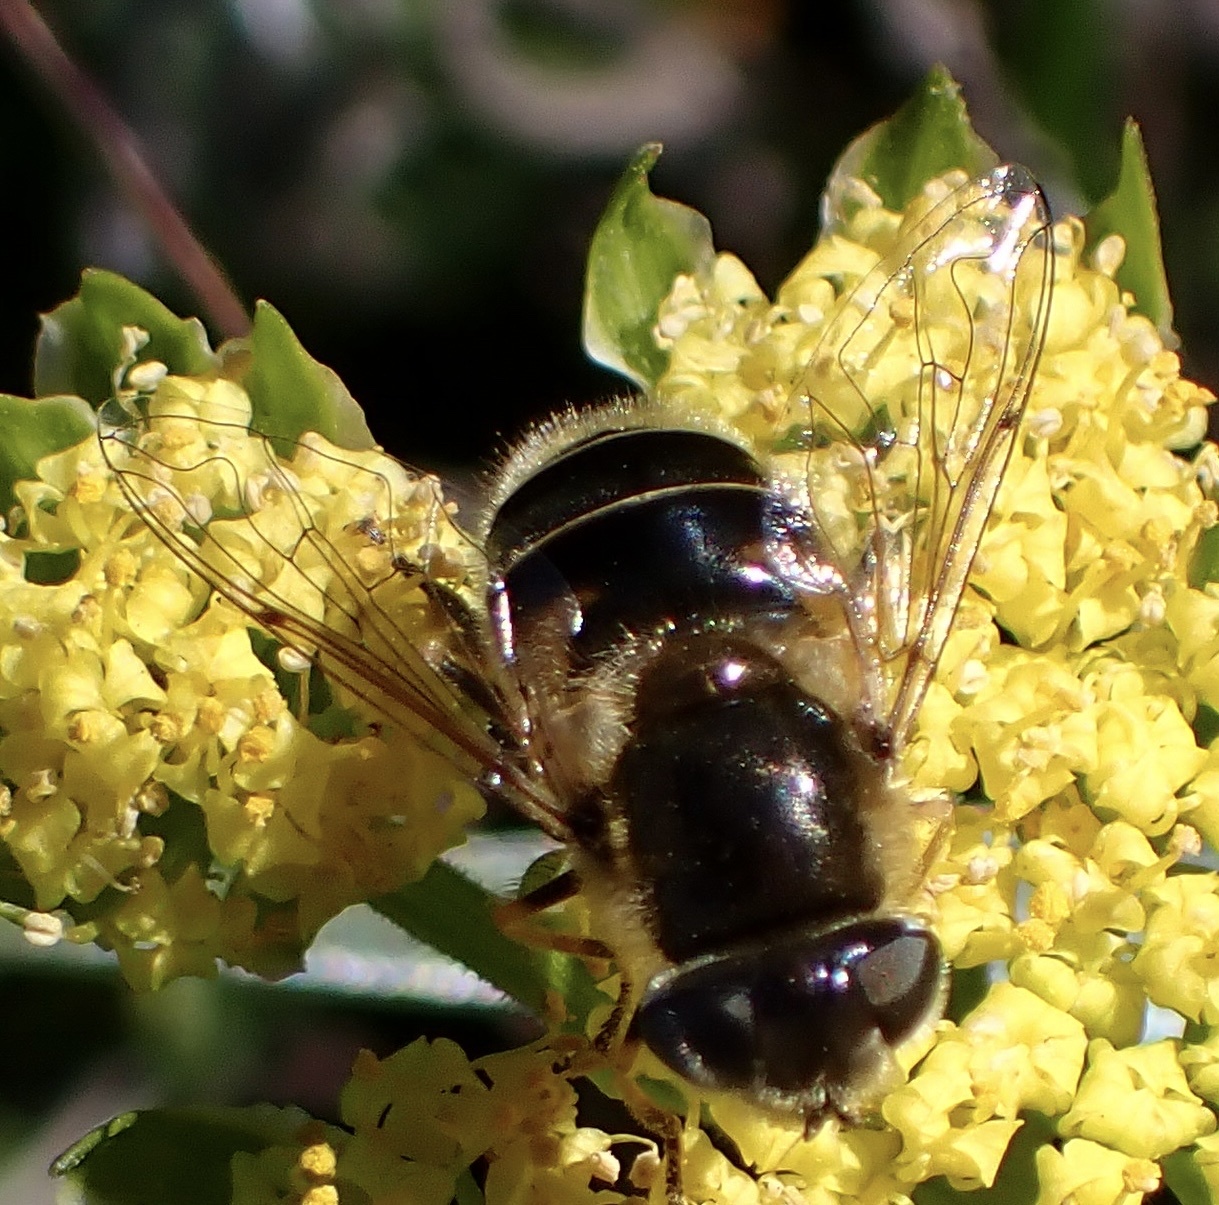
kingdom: Animalia
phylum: Arthropoda
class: Insecta
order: Diptera
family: Syrphidae
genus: Eristalis
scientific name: Eristalis hirta
